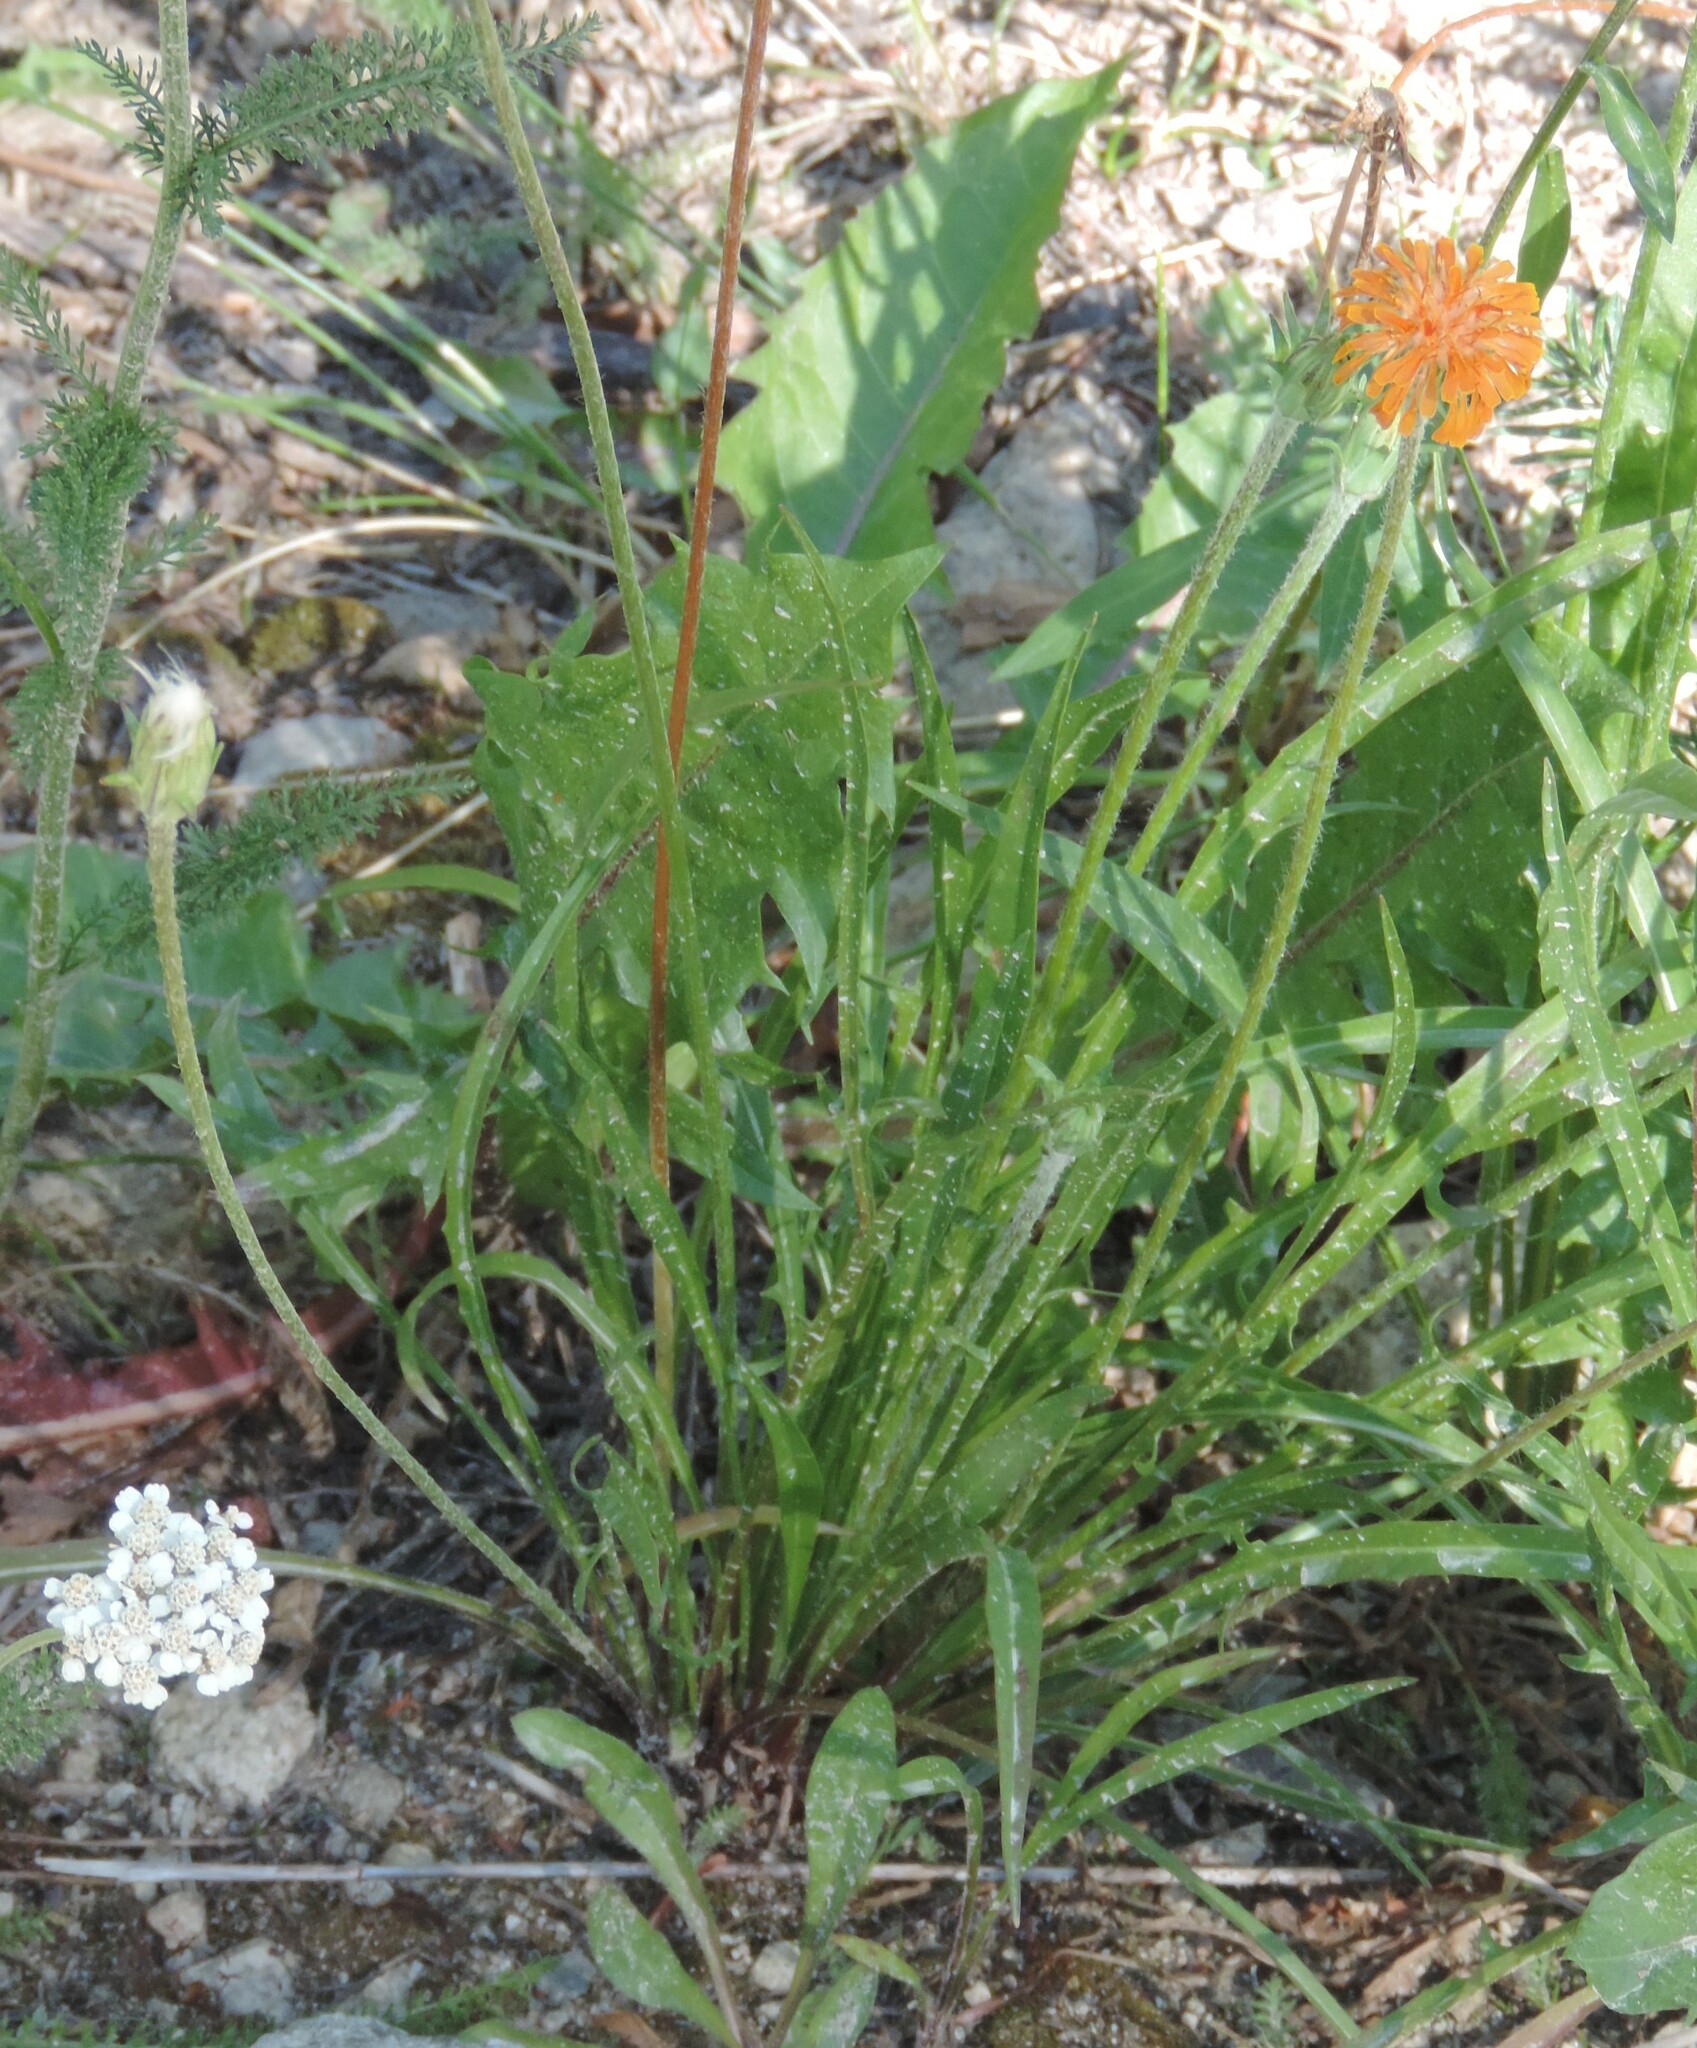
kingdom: Plantae
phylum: Tracheophyta
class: Magnoliopsida
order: Asterales
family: Asteraceae
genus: Agoseris
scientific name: Agoseris aurantiaca
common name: Mountain agoseris
